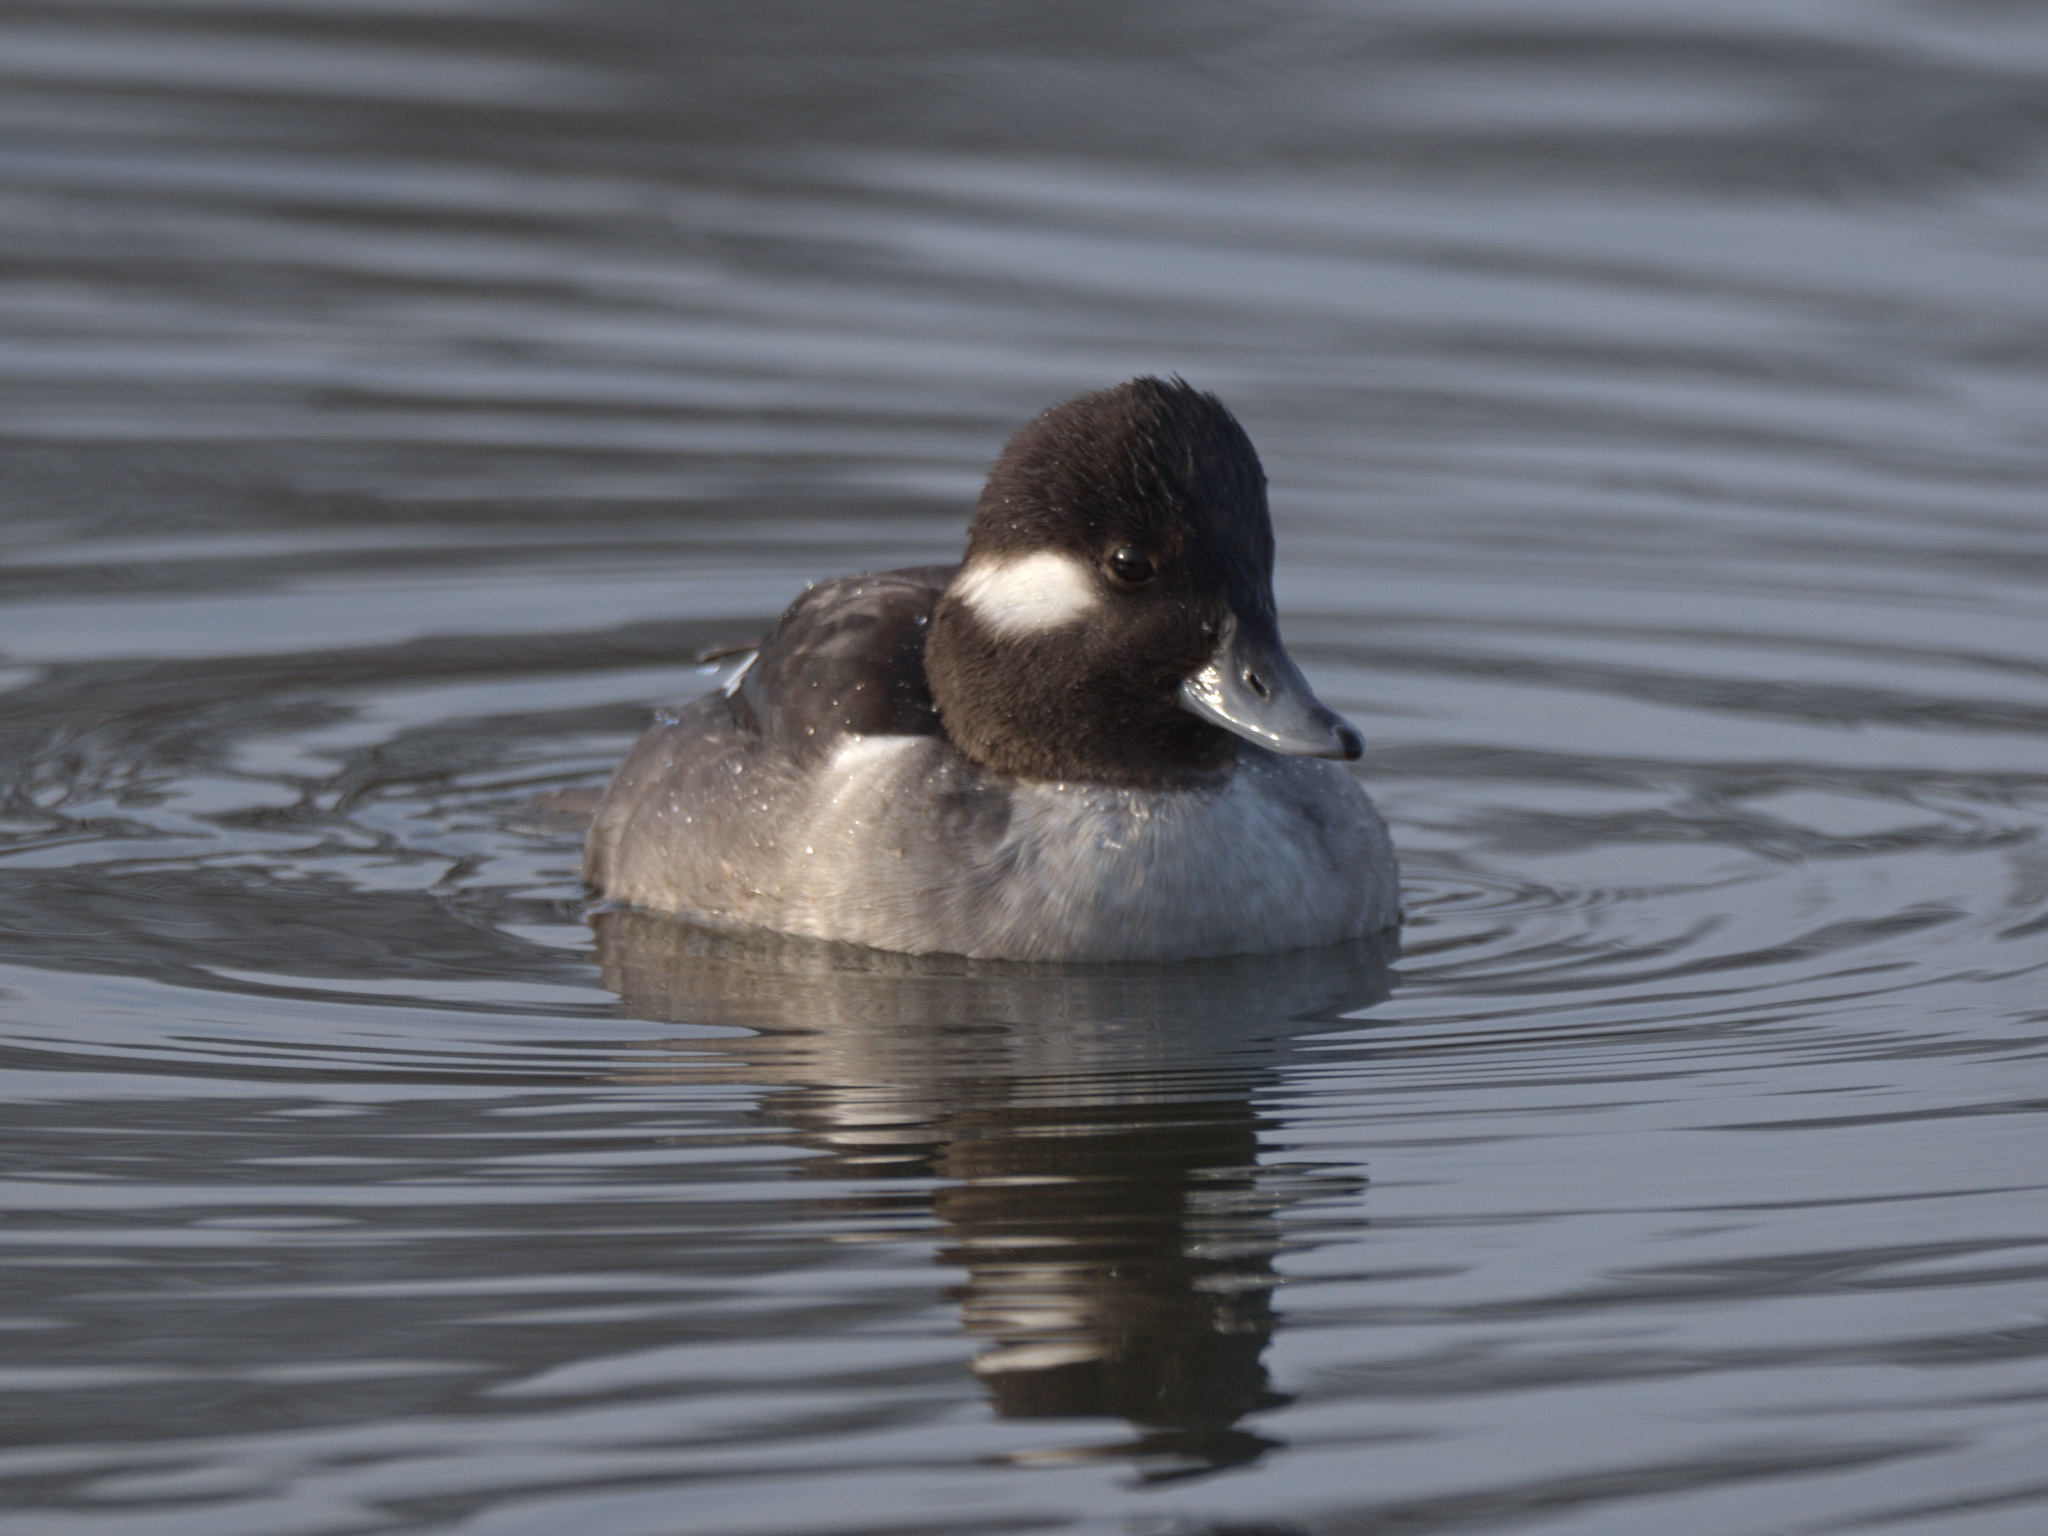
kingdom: Animalia
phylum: Chordata
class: Aves
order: Anseriformes
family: Anatidae
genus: Bucephala
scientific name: Bucephala albeola
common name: Bufflehead
